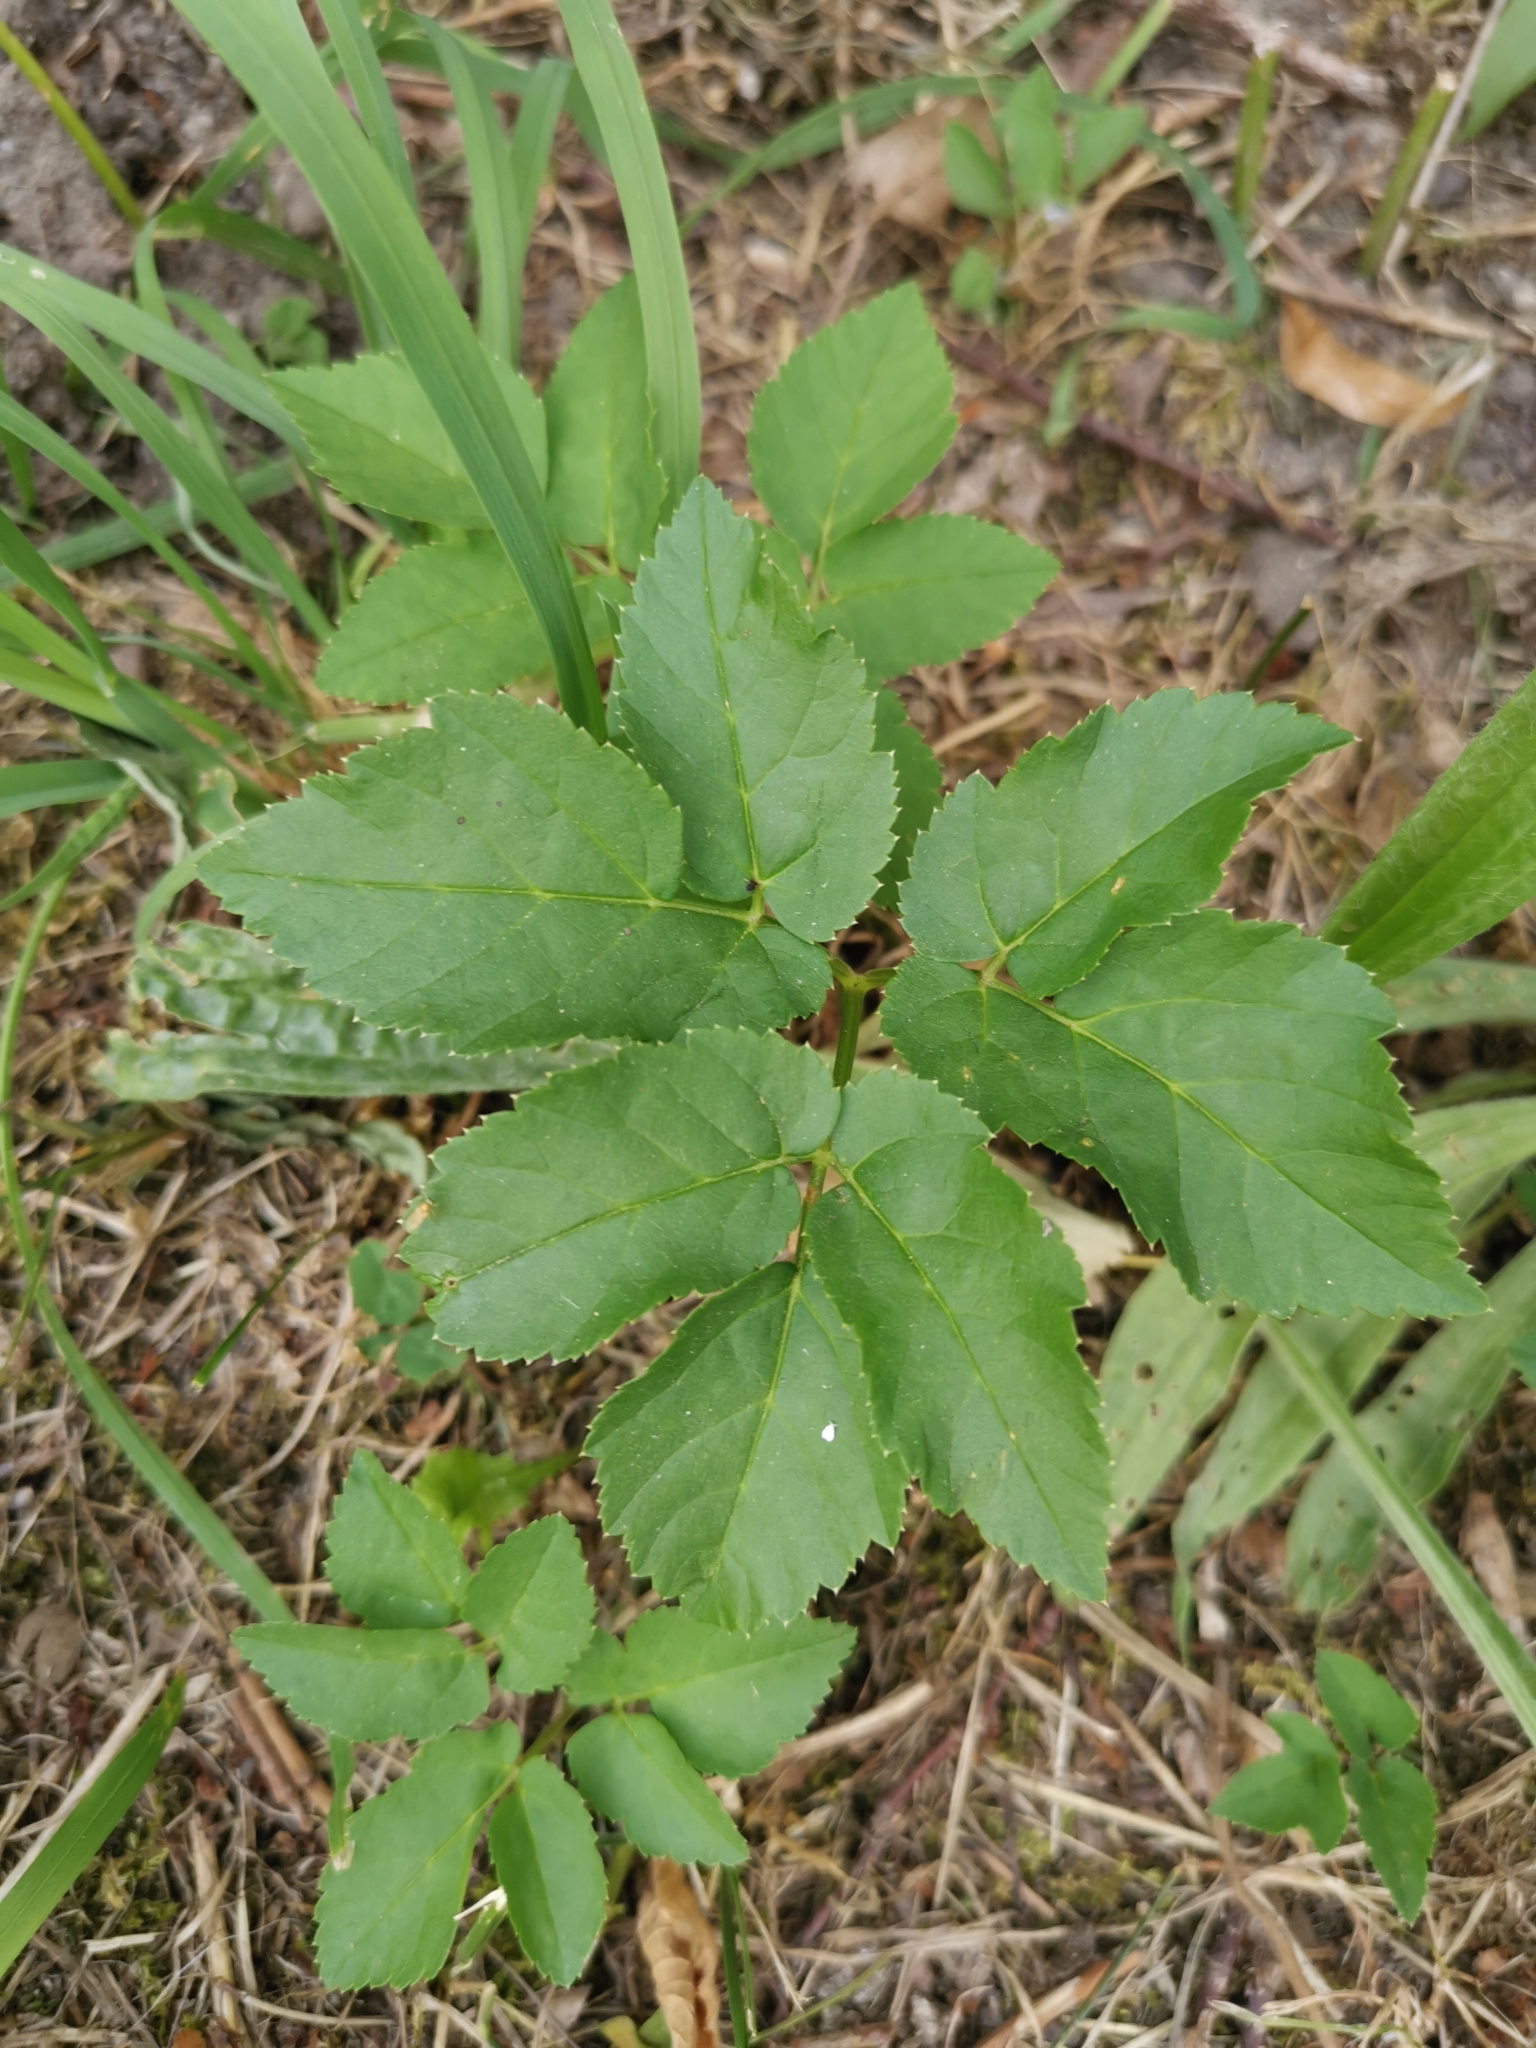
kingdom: Plantae
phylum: Tracheophyta
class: Magnoliopsida
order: Apiales
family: Apiaceae
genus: Aegopodium
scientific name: Aegopodium podagraria
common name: Ground-elder
